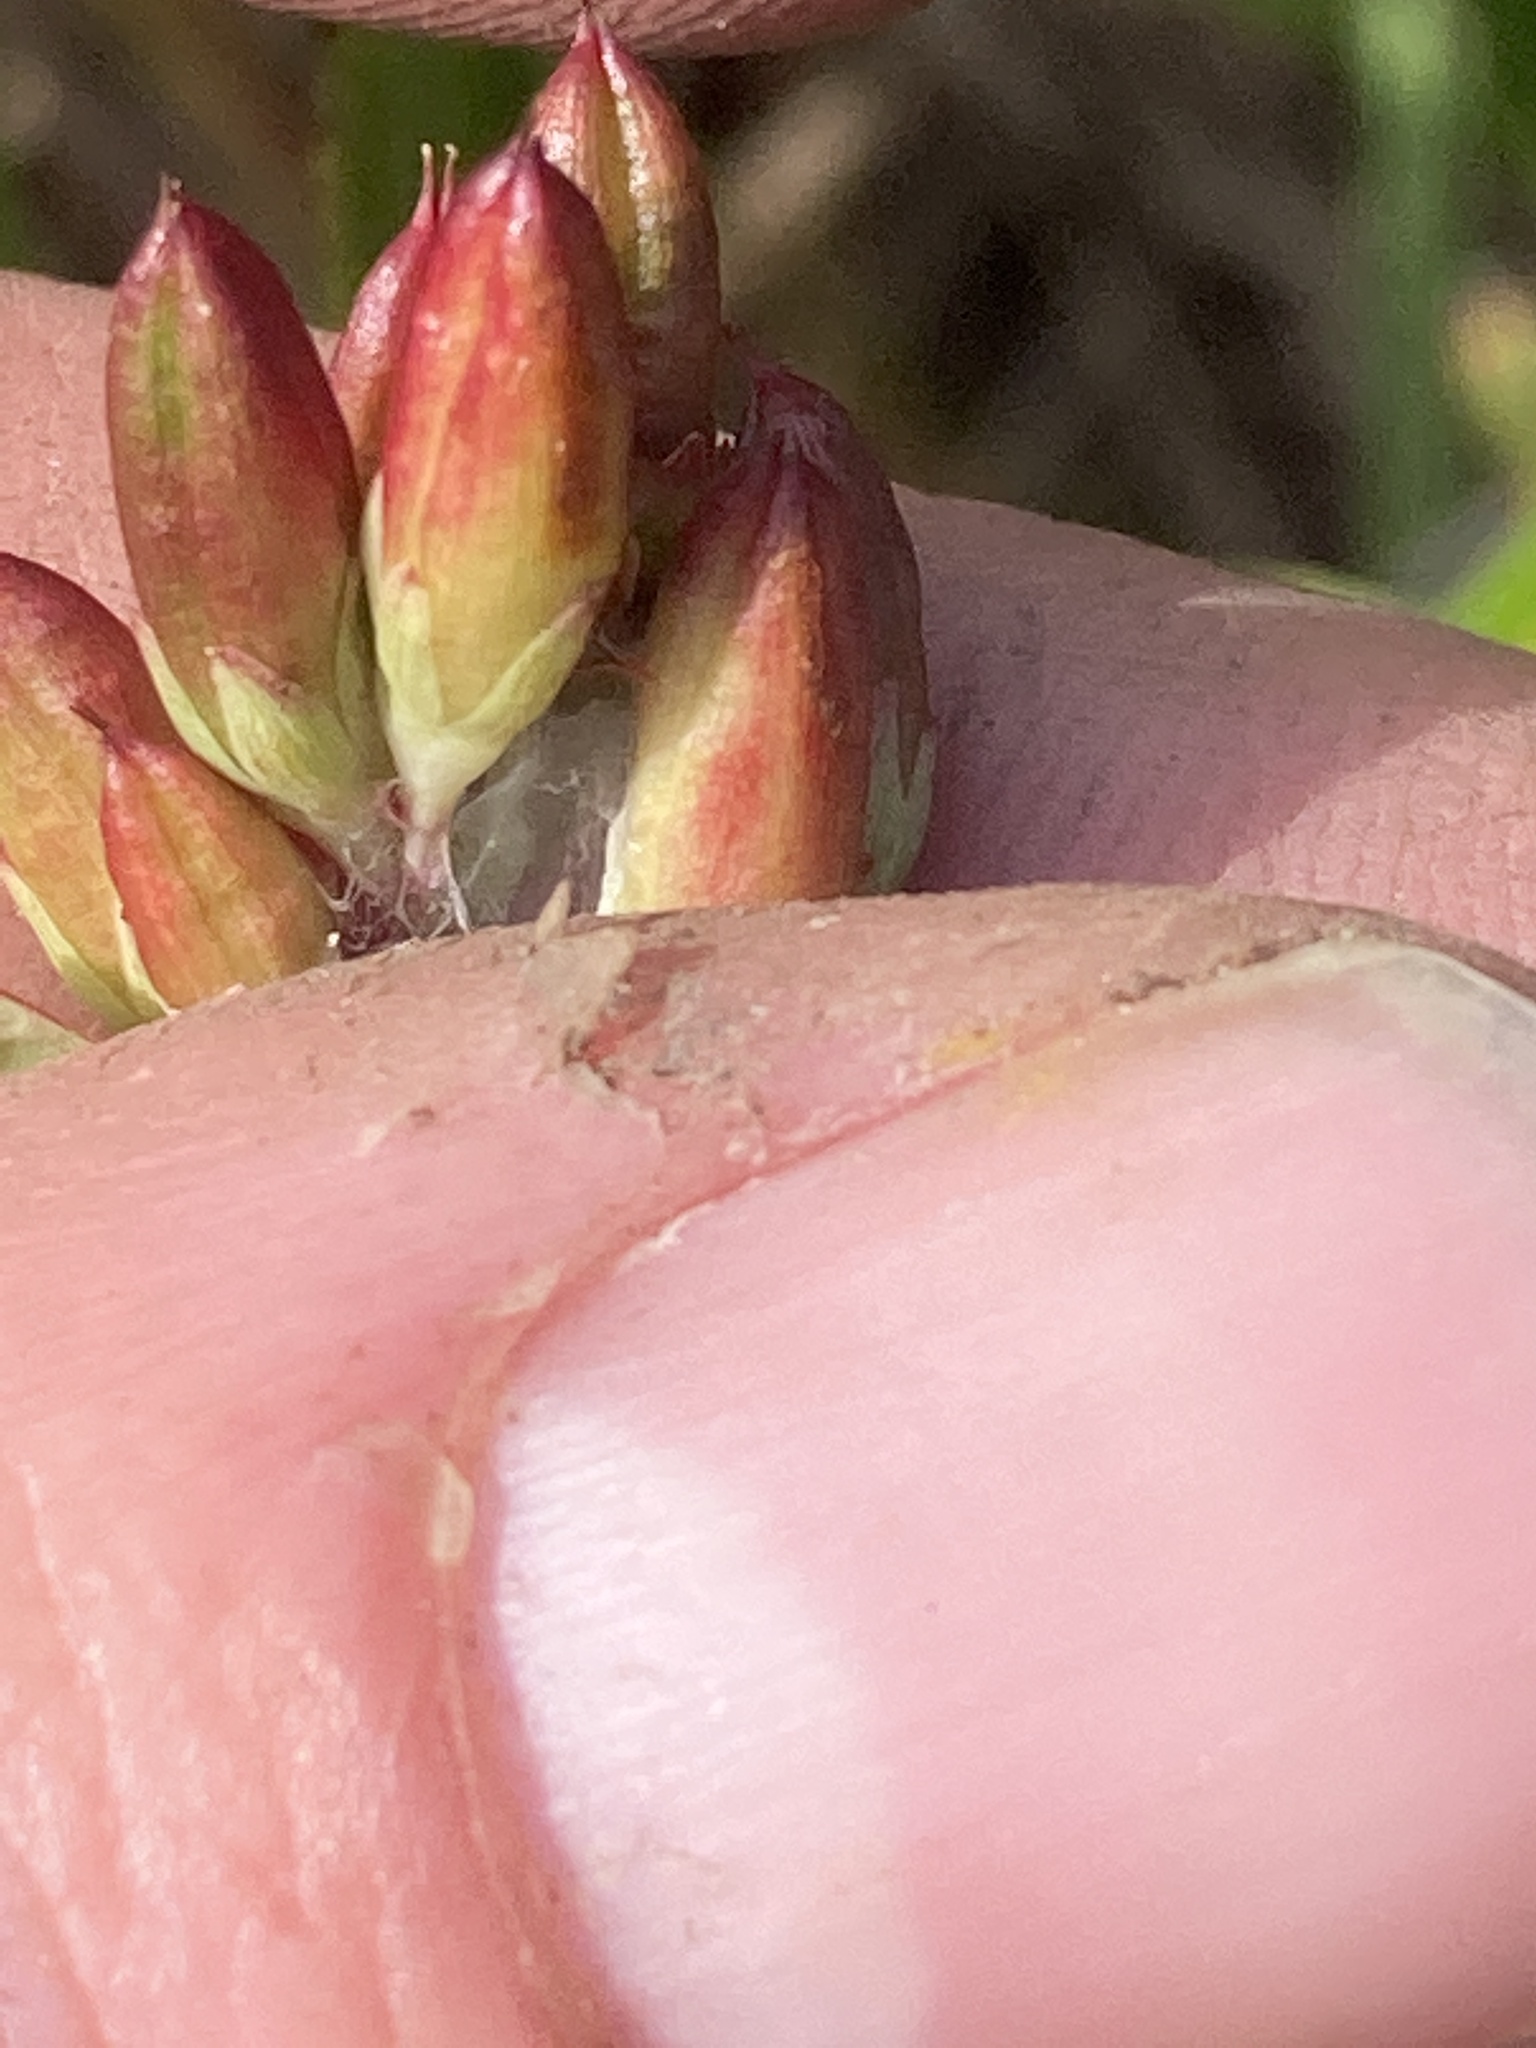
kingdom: Plantae
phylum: Tracheophyta
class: Magnoliopsida
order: Malpighiales
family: Hypericaceae
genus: Triadenum
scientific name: Triadenum fraseri
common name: Fraser's marsh st. johnswort
